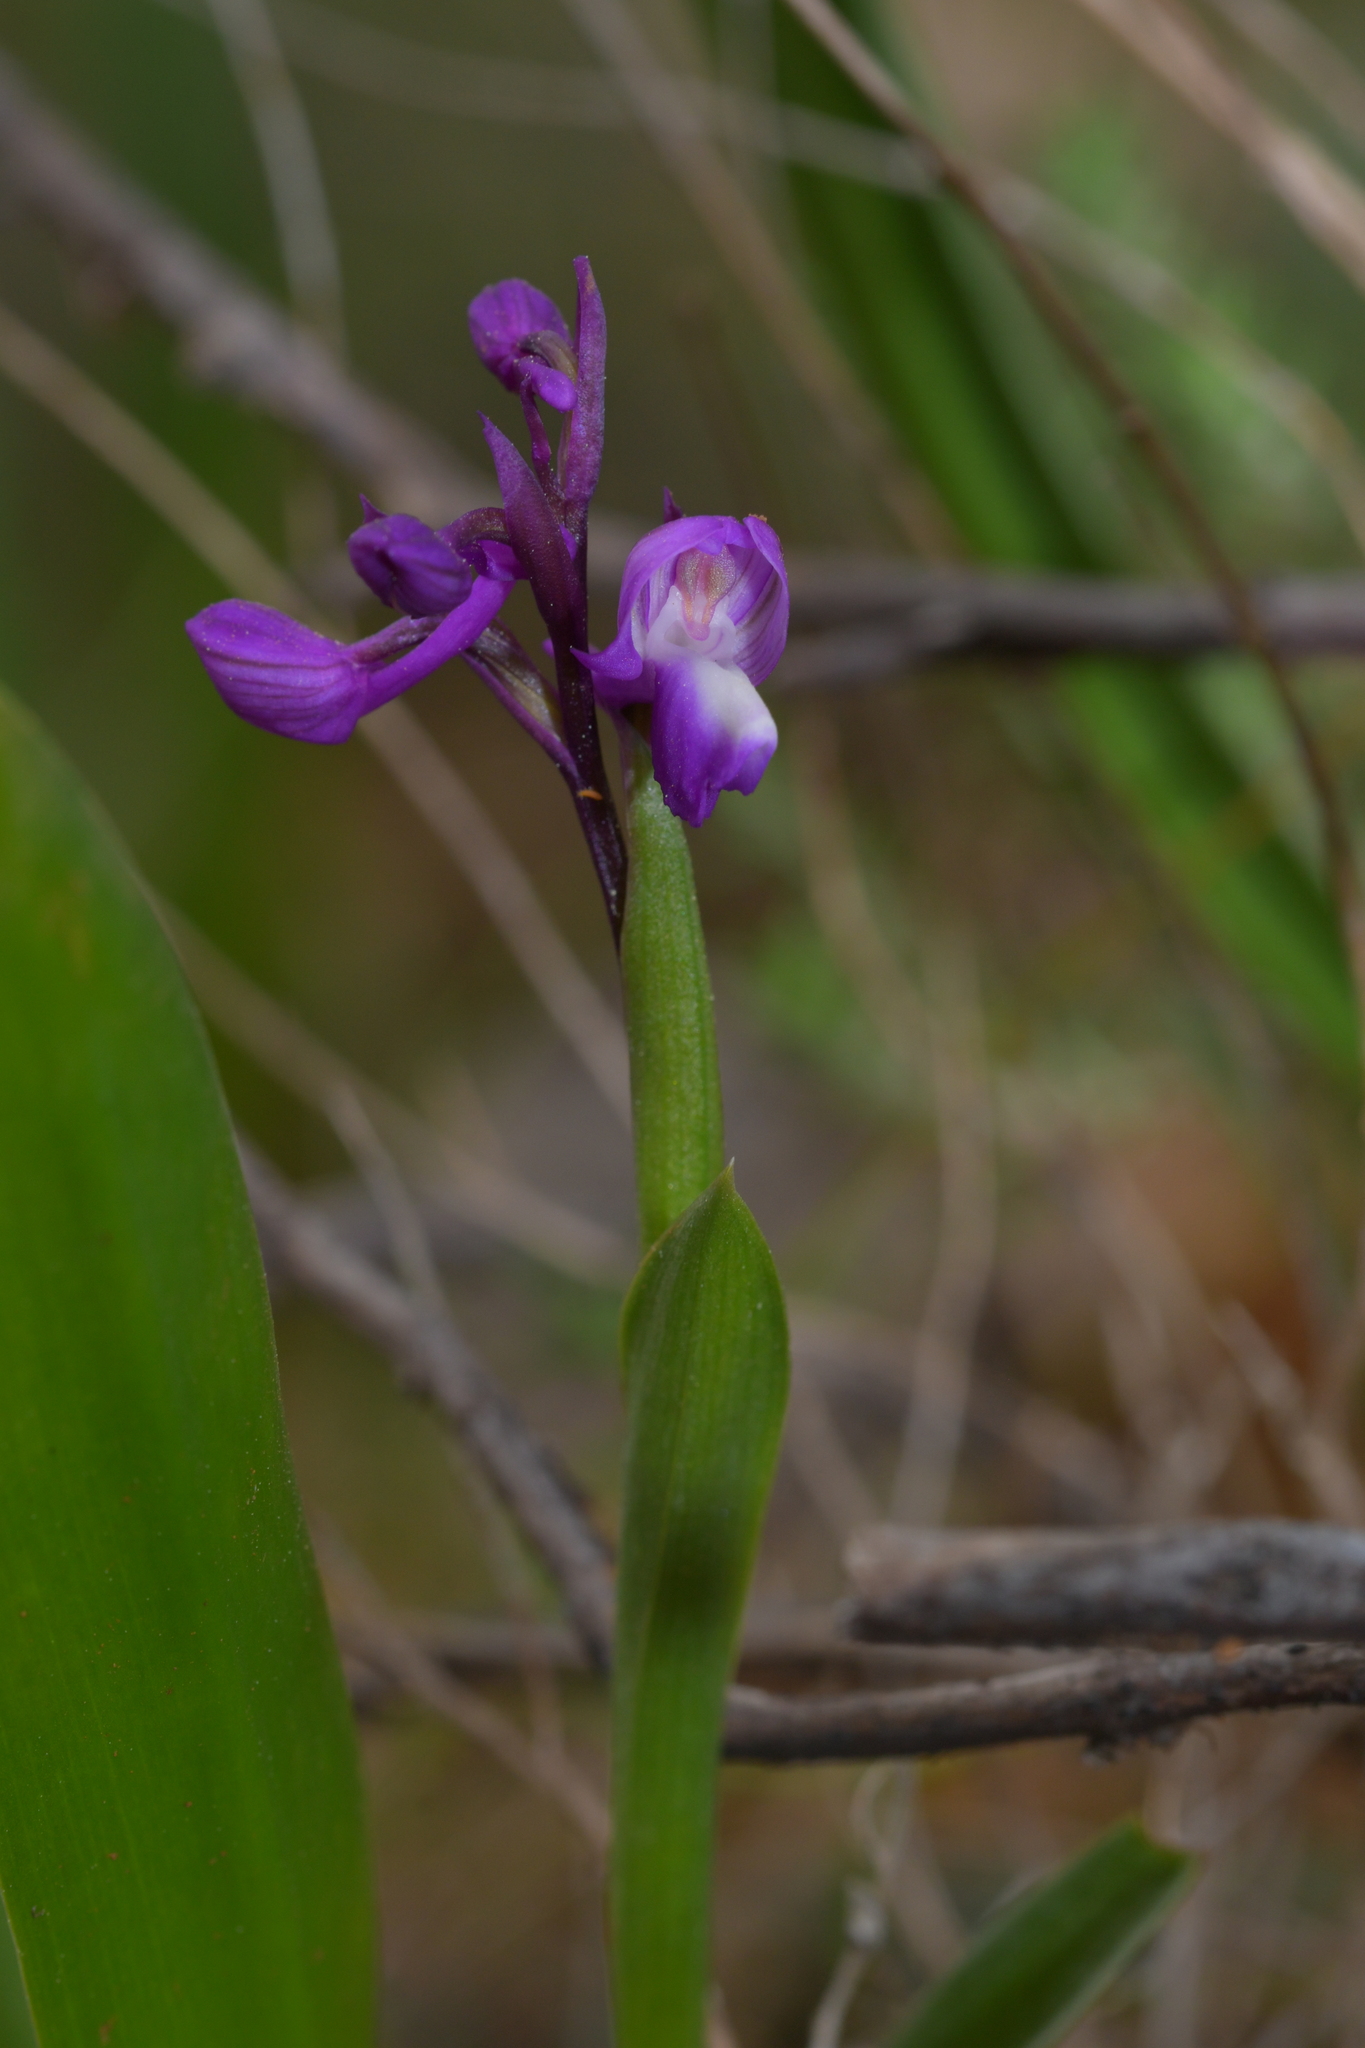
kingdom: Plantae
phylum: Tracheophyta
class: Liliopsida
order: Asparagales
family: Orchidaceae
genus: Anacamptis
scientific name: Anacamptis morio
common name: Green-winged orchid
